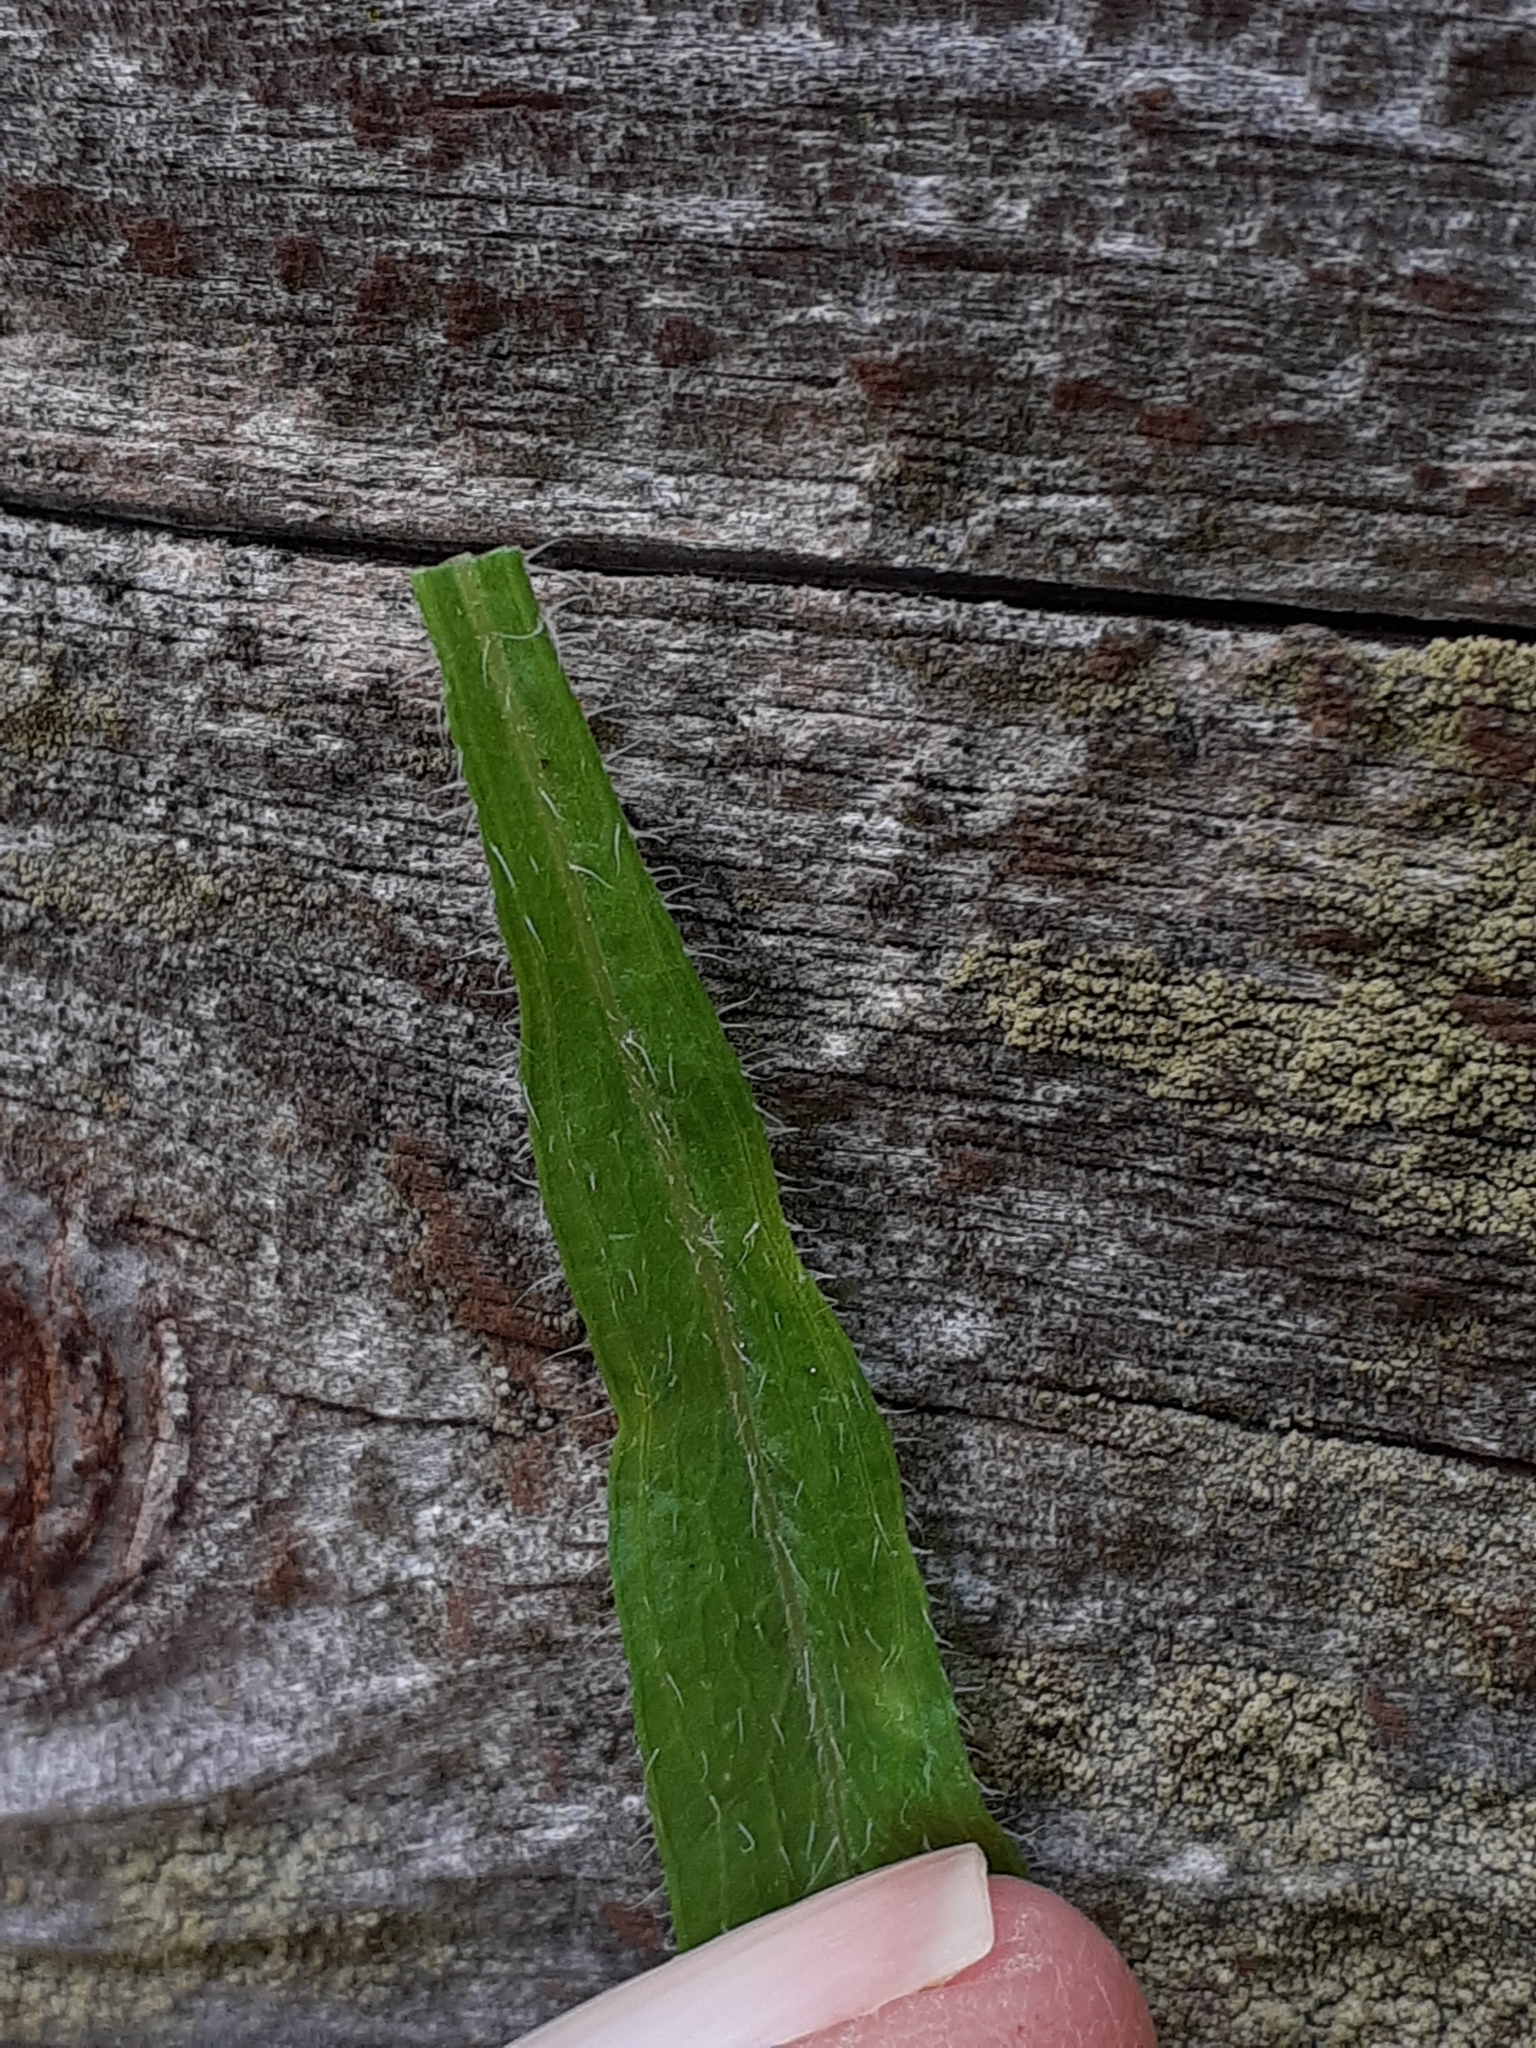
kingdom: Plantae
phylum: Tracheophyta
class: Magnoliopsida
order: Asterales
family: Asteraceae
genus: Erigeron
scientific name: Erigeron canadensis
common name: Canadian fleabane
